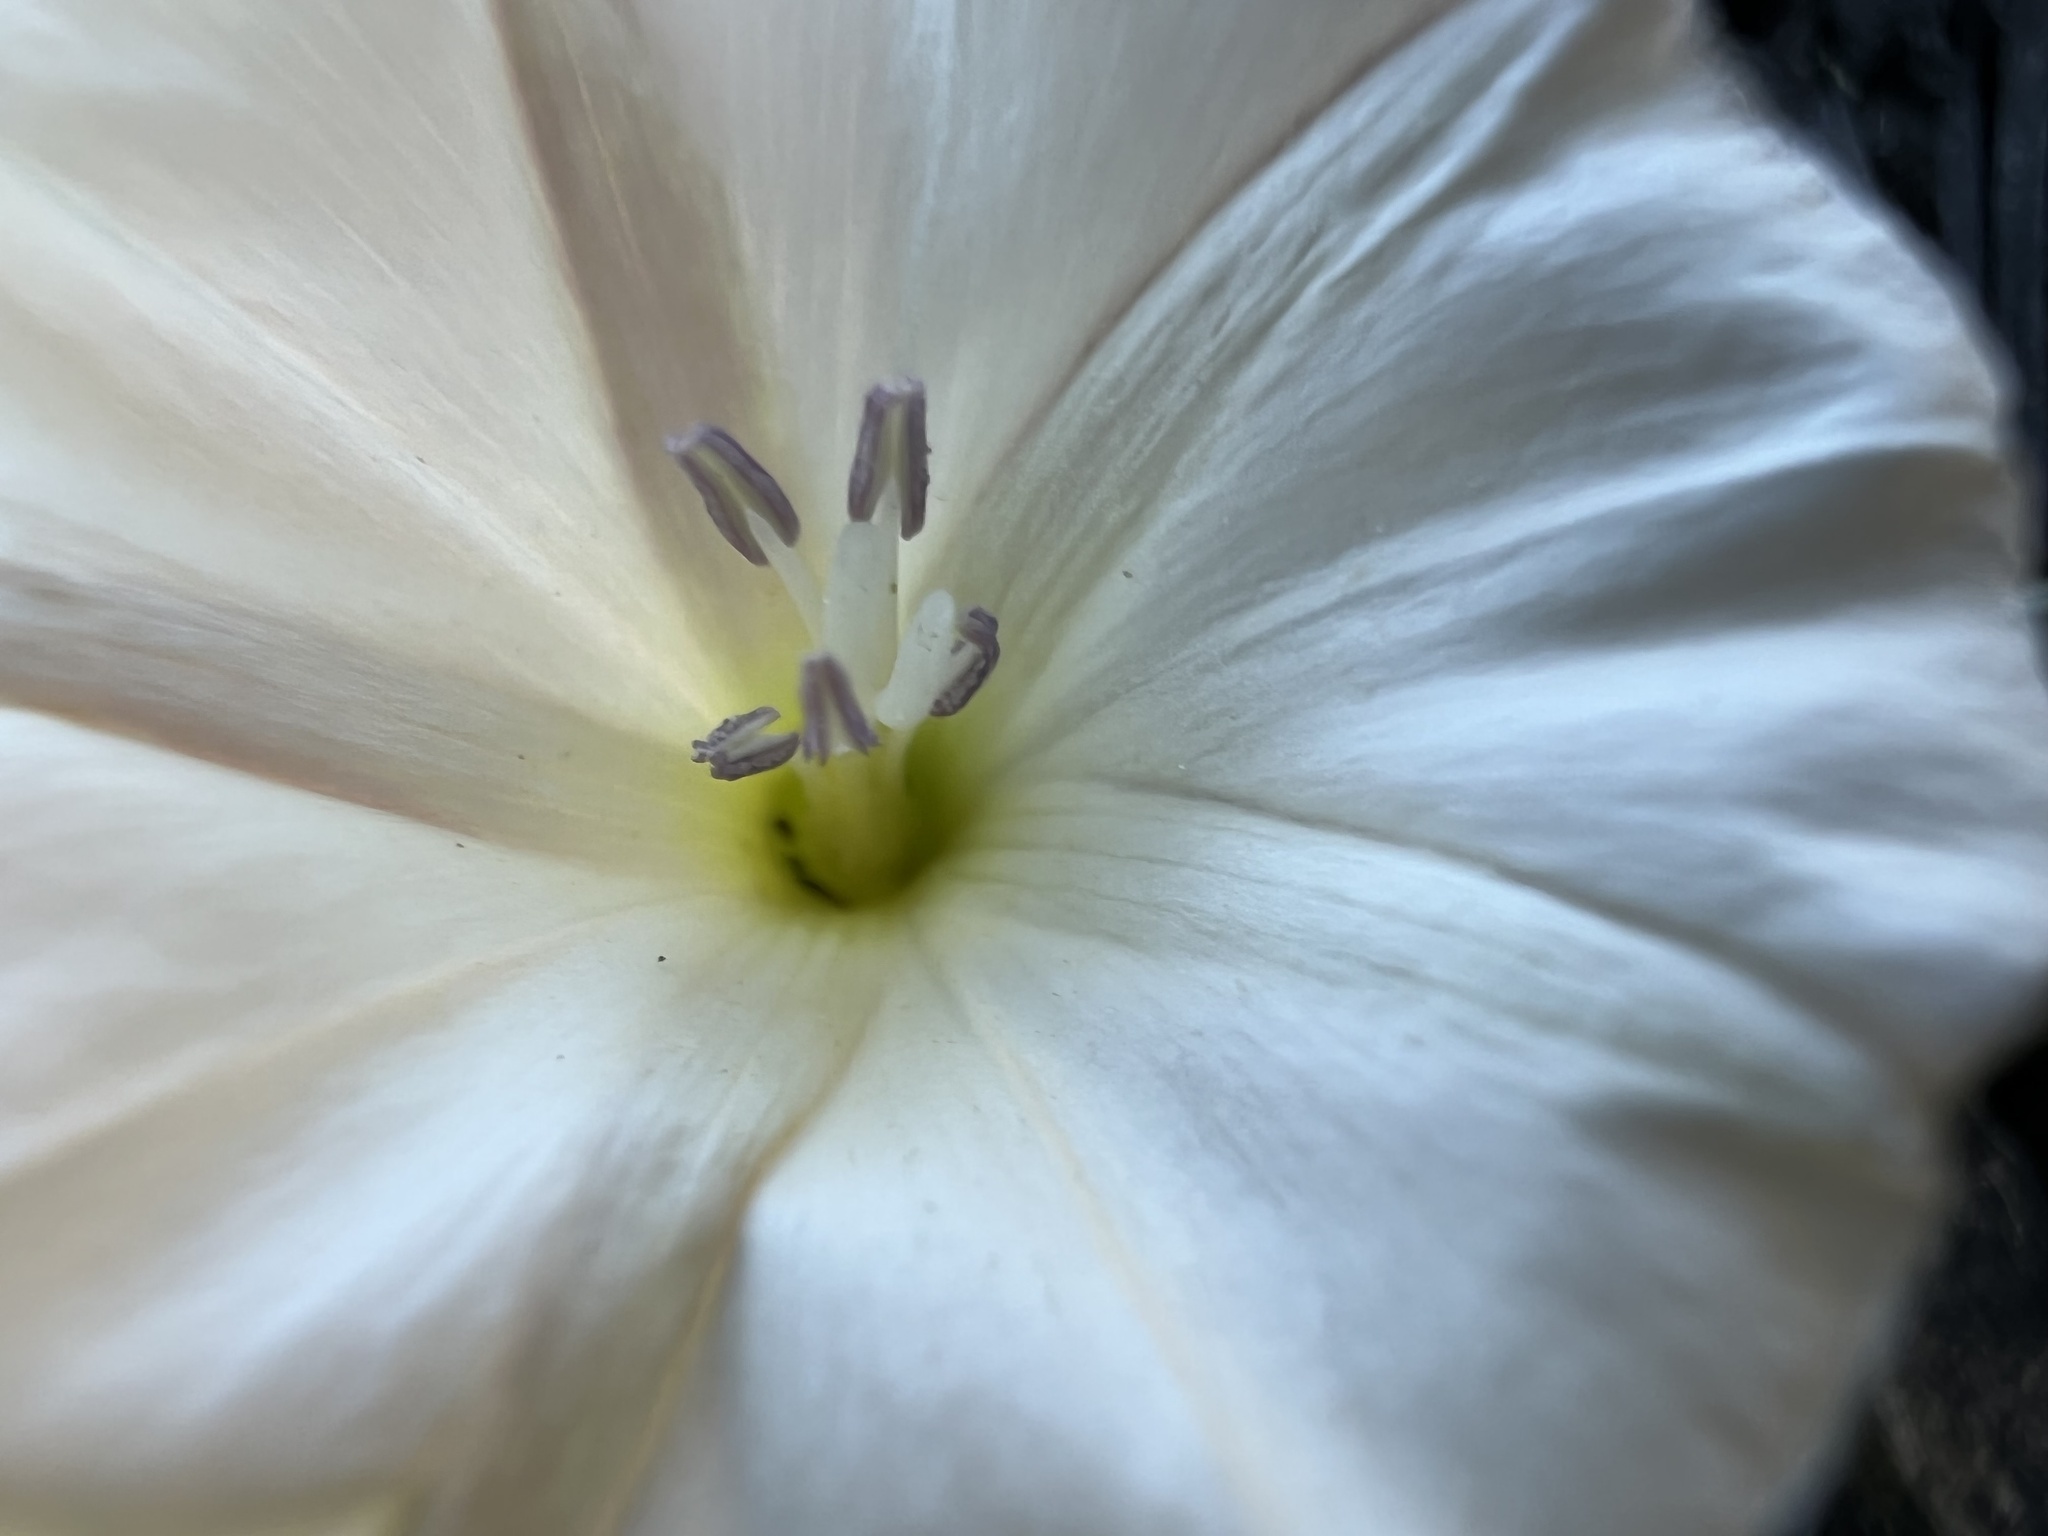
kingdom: Plantae
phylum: Tracheophyta
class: Magnoliopsida
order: Solanales
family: Convolvulaceae
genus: Convolvulus
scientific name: Convolvulus arvensis
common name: Field bindweed
